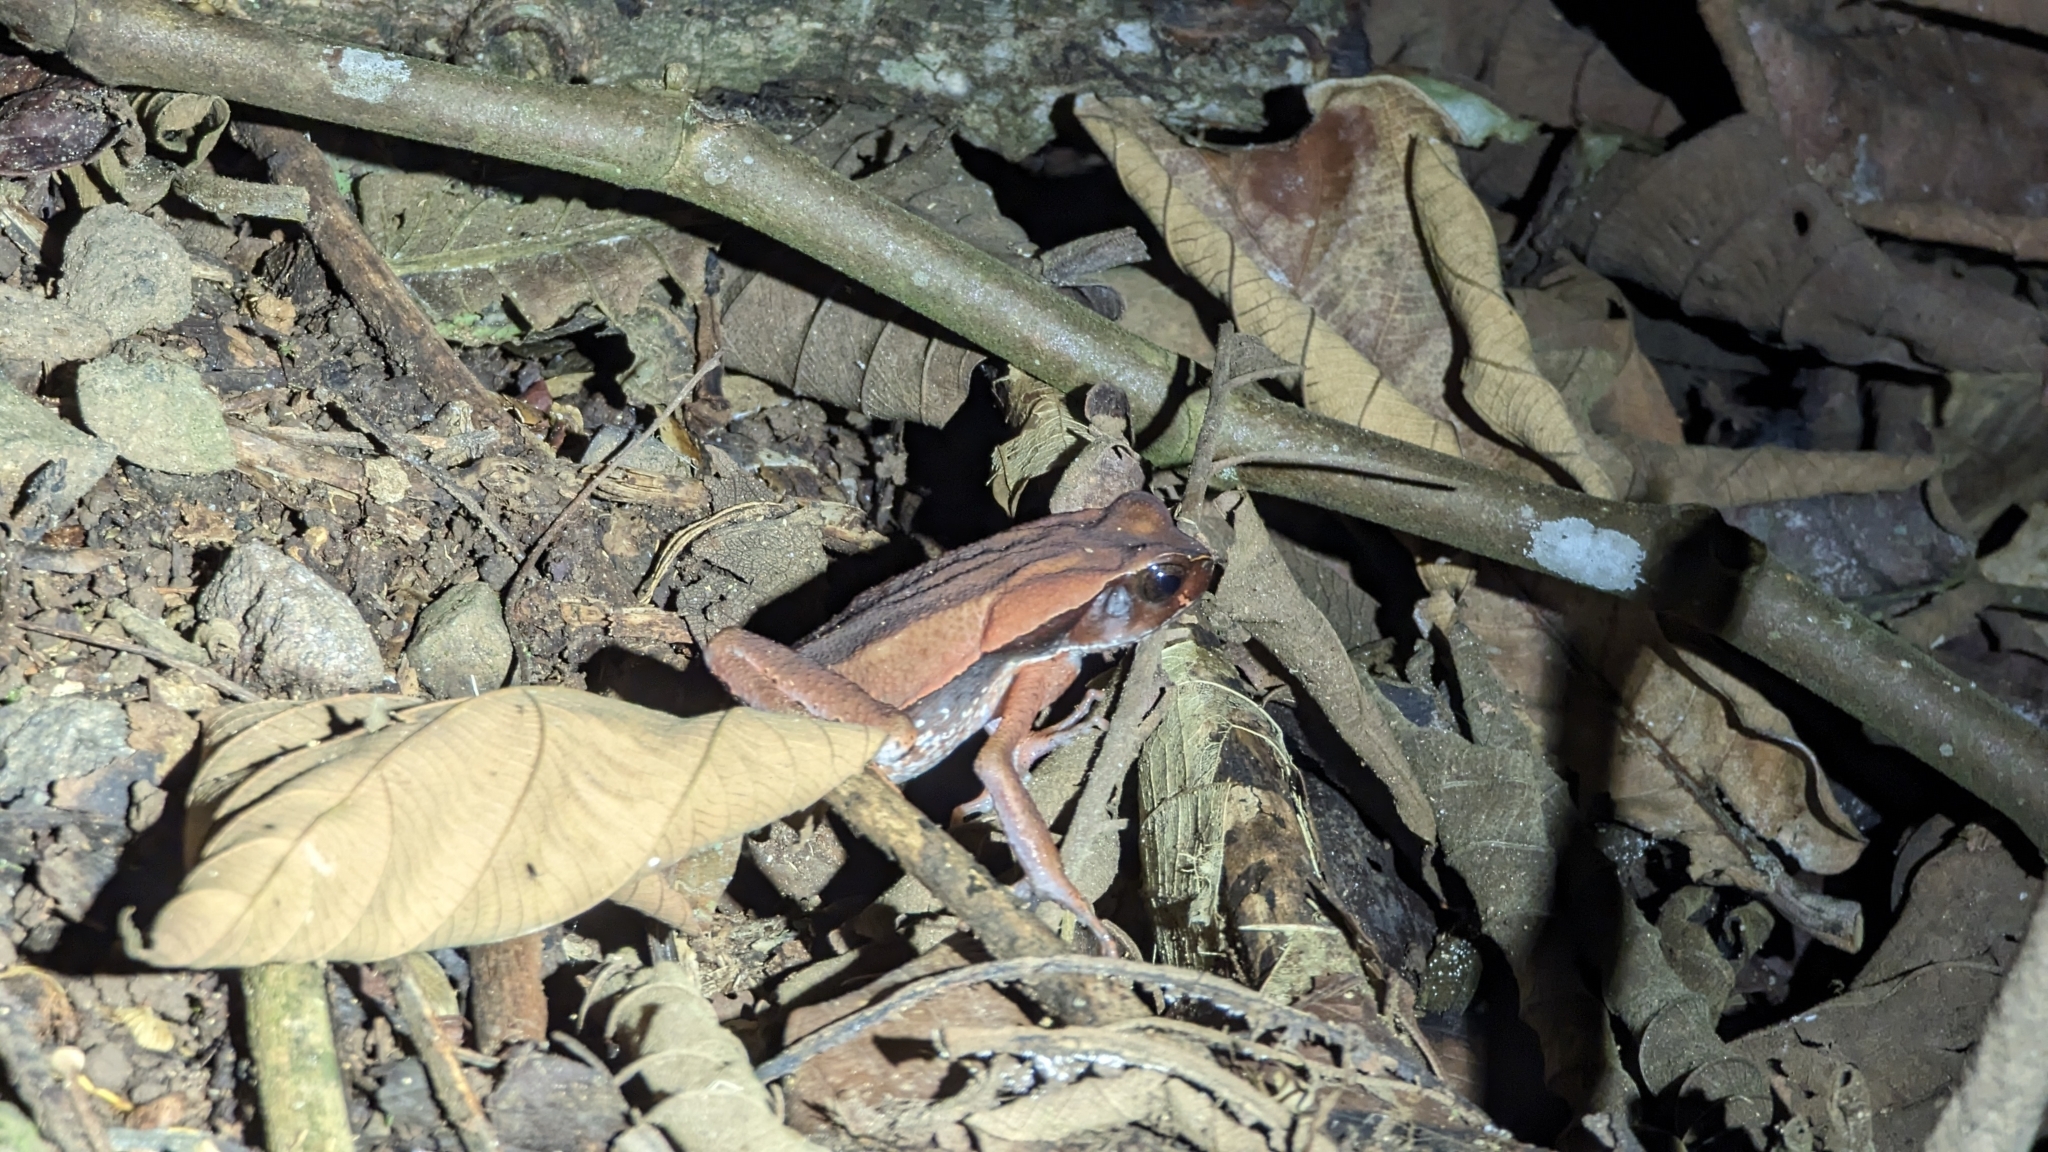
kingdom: Animalia
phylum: Chordata
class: Amphibia
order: Anura
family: Bufonidae
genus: Rhaebo
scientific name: Rhaebo haematiticus
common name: Truando toad
